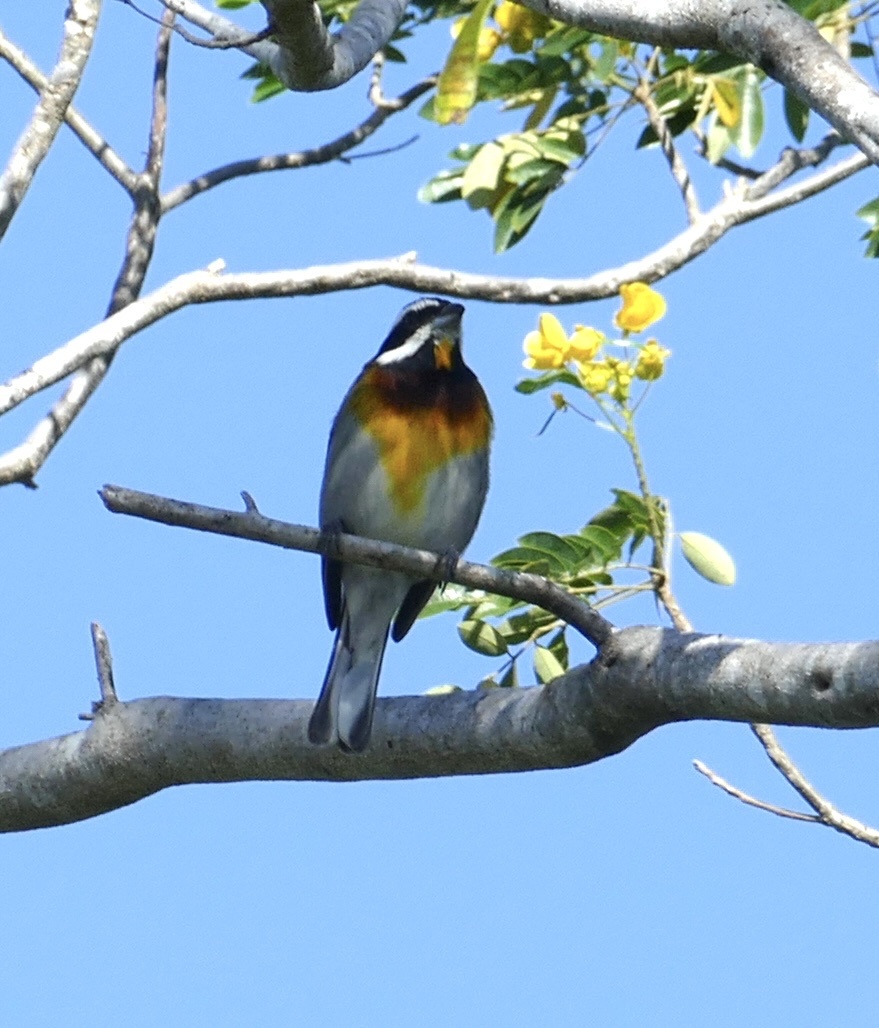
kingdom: Animalia
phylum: Chordata
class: Aves
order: Passeriformes
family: Spindalidae
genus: Spindalis
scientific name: Spindalis zena
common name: Western spindalis
